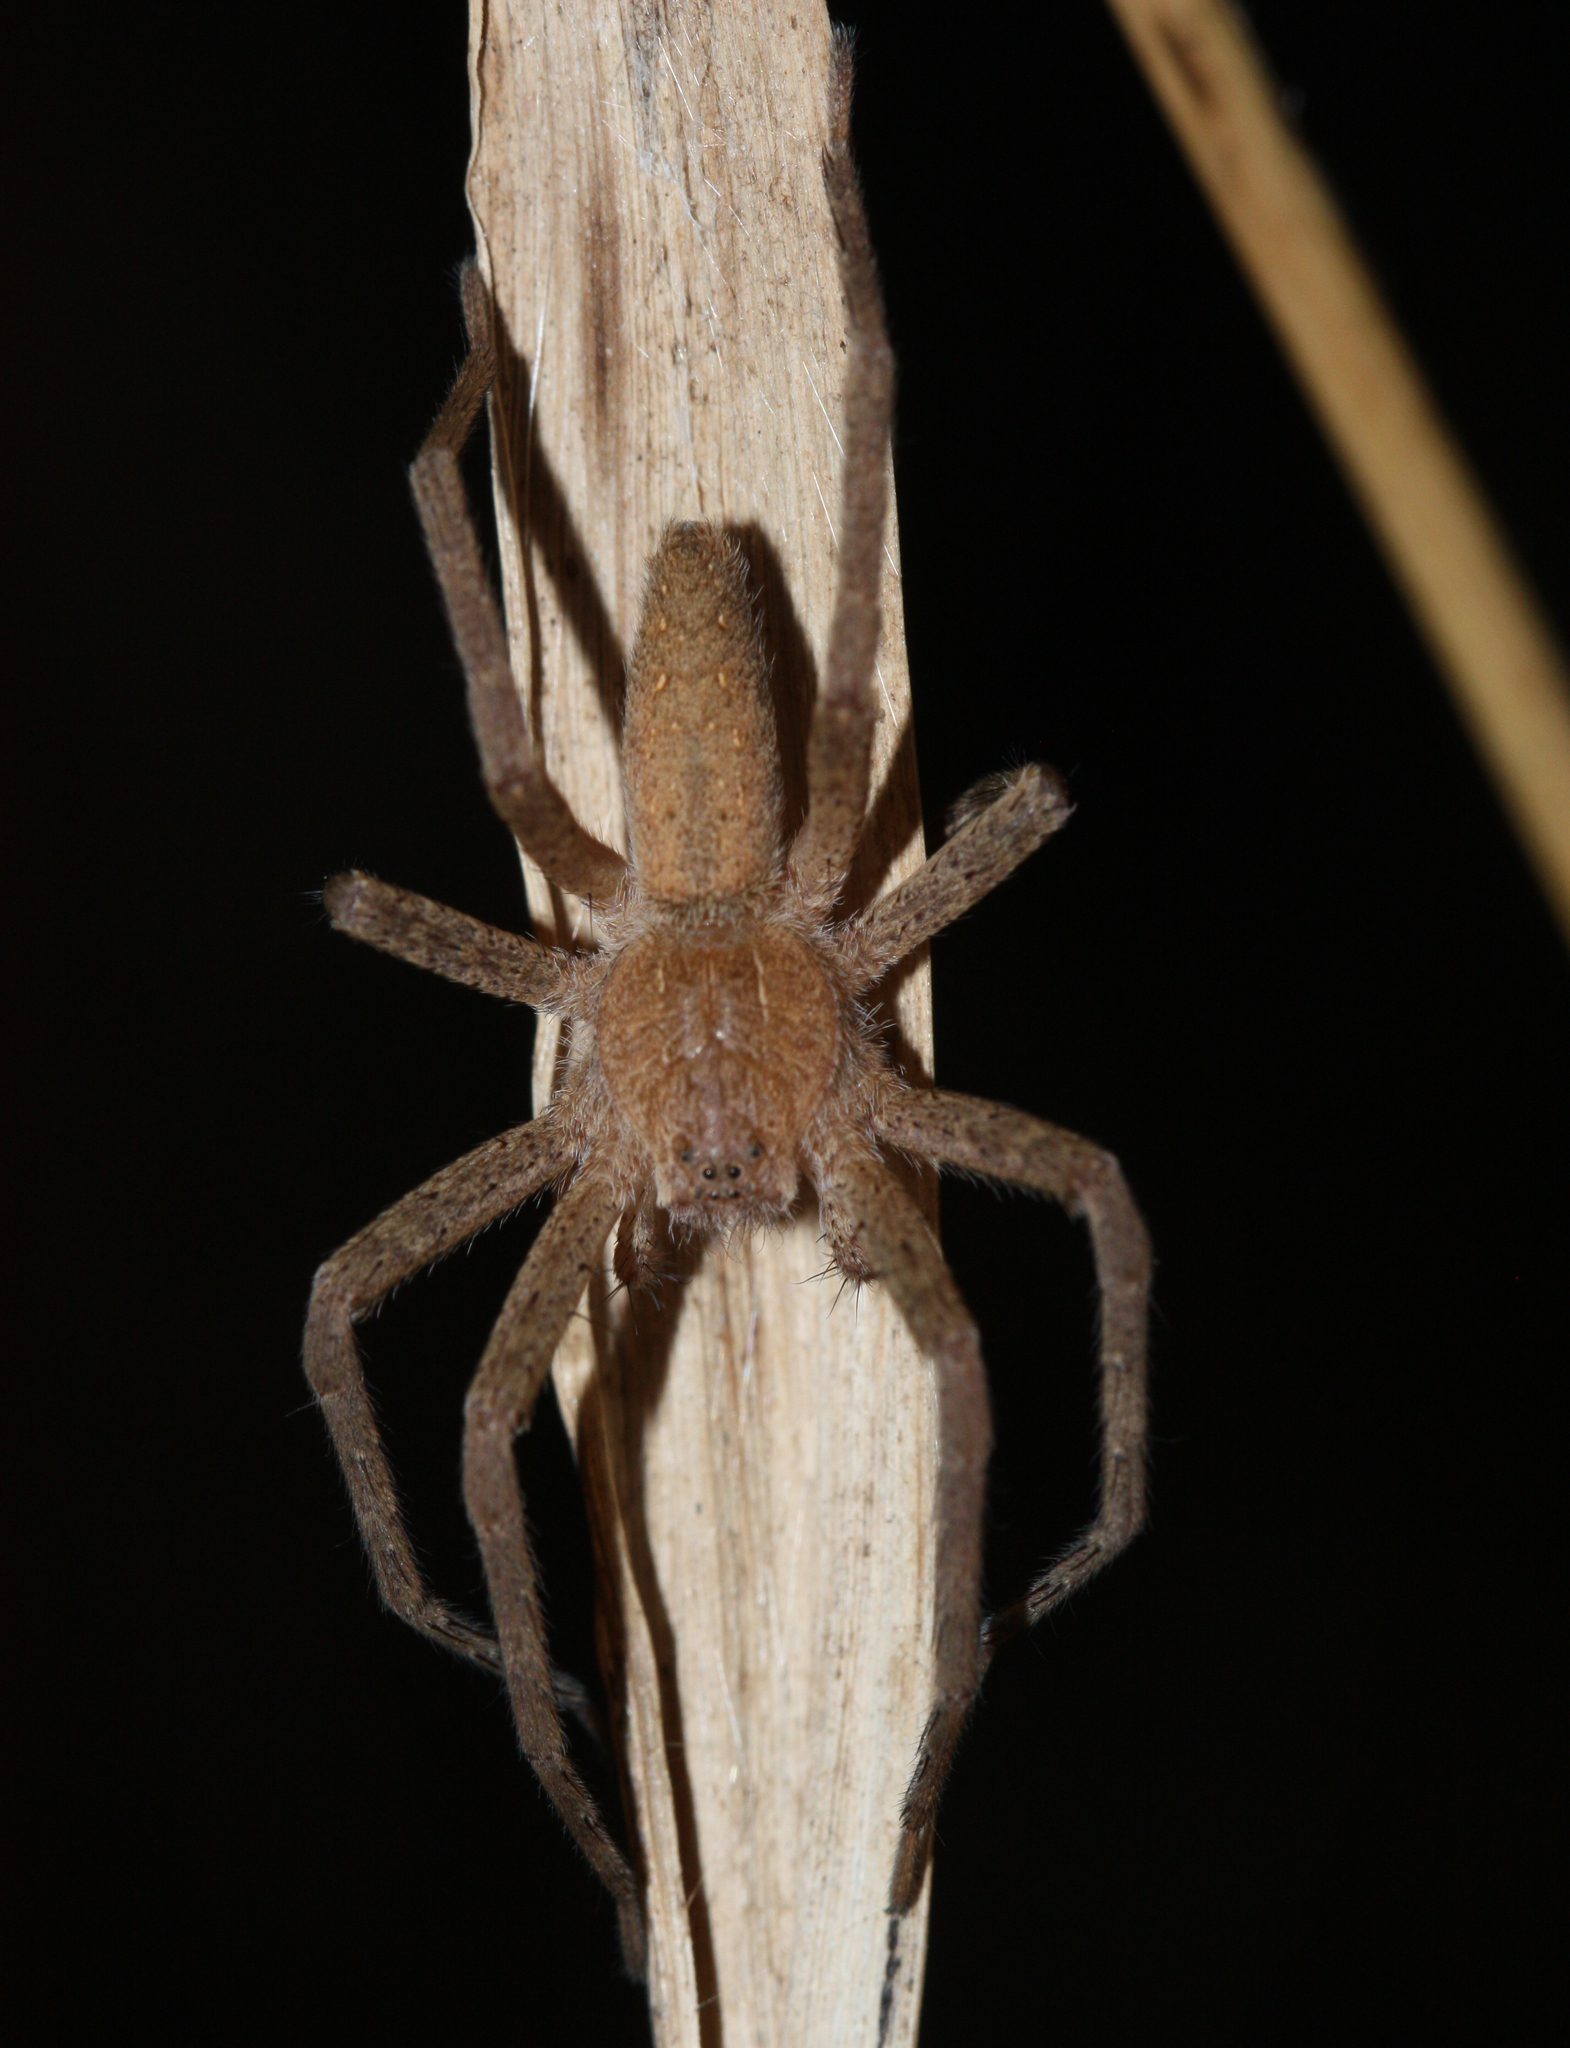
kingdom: Animalia
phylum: Arthropoda
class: Arachnida
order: Araneae
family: Pisauridae
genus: Pisaurina
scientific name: Pisaurina mira
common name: American nursery web spider
